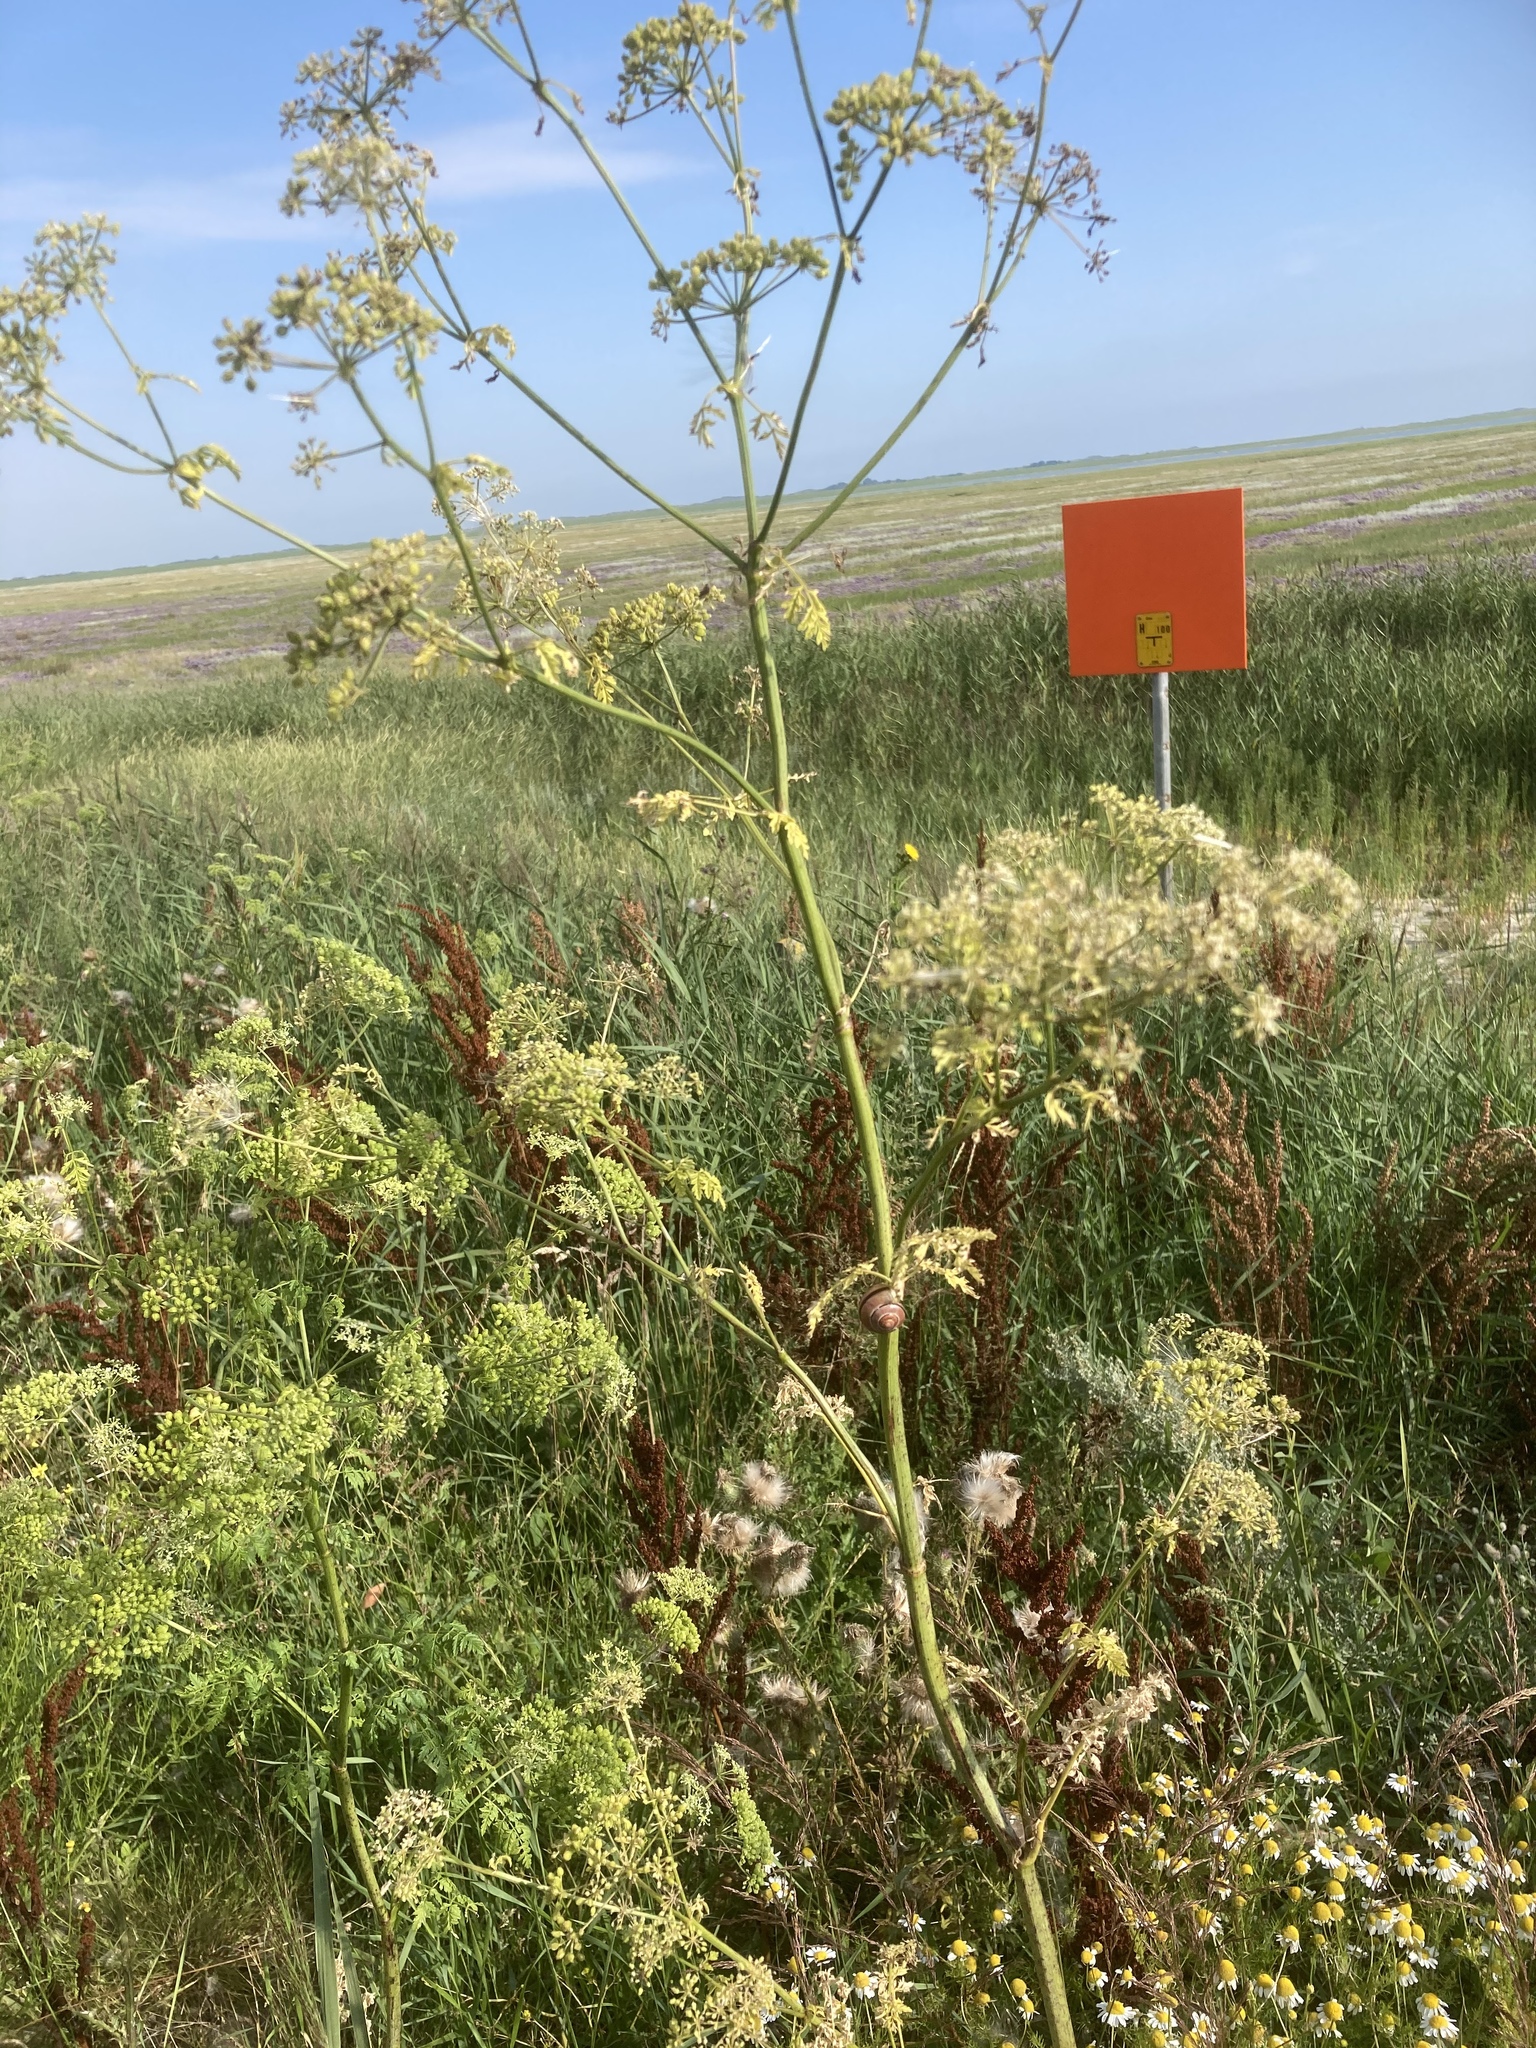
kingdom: Plantae
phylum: Tracheophyta
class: Magnoliopsida
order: Apiales
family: Apiaceae
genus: Conium
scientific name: Conium maculatum
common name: Hemlock
